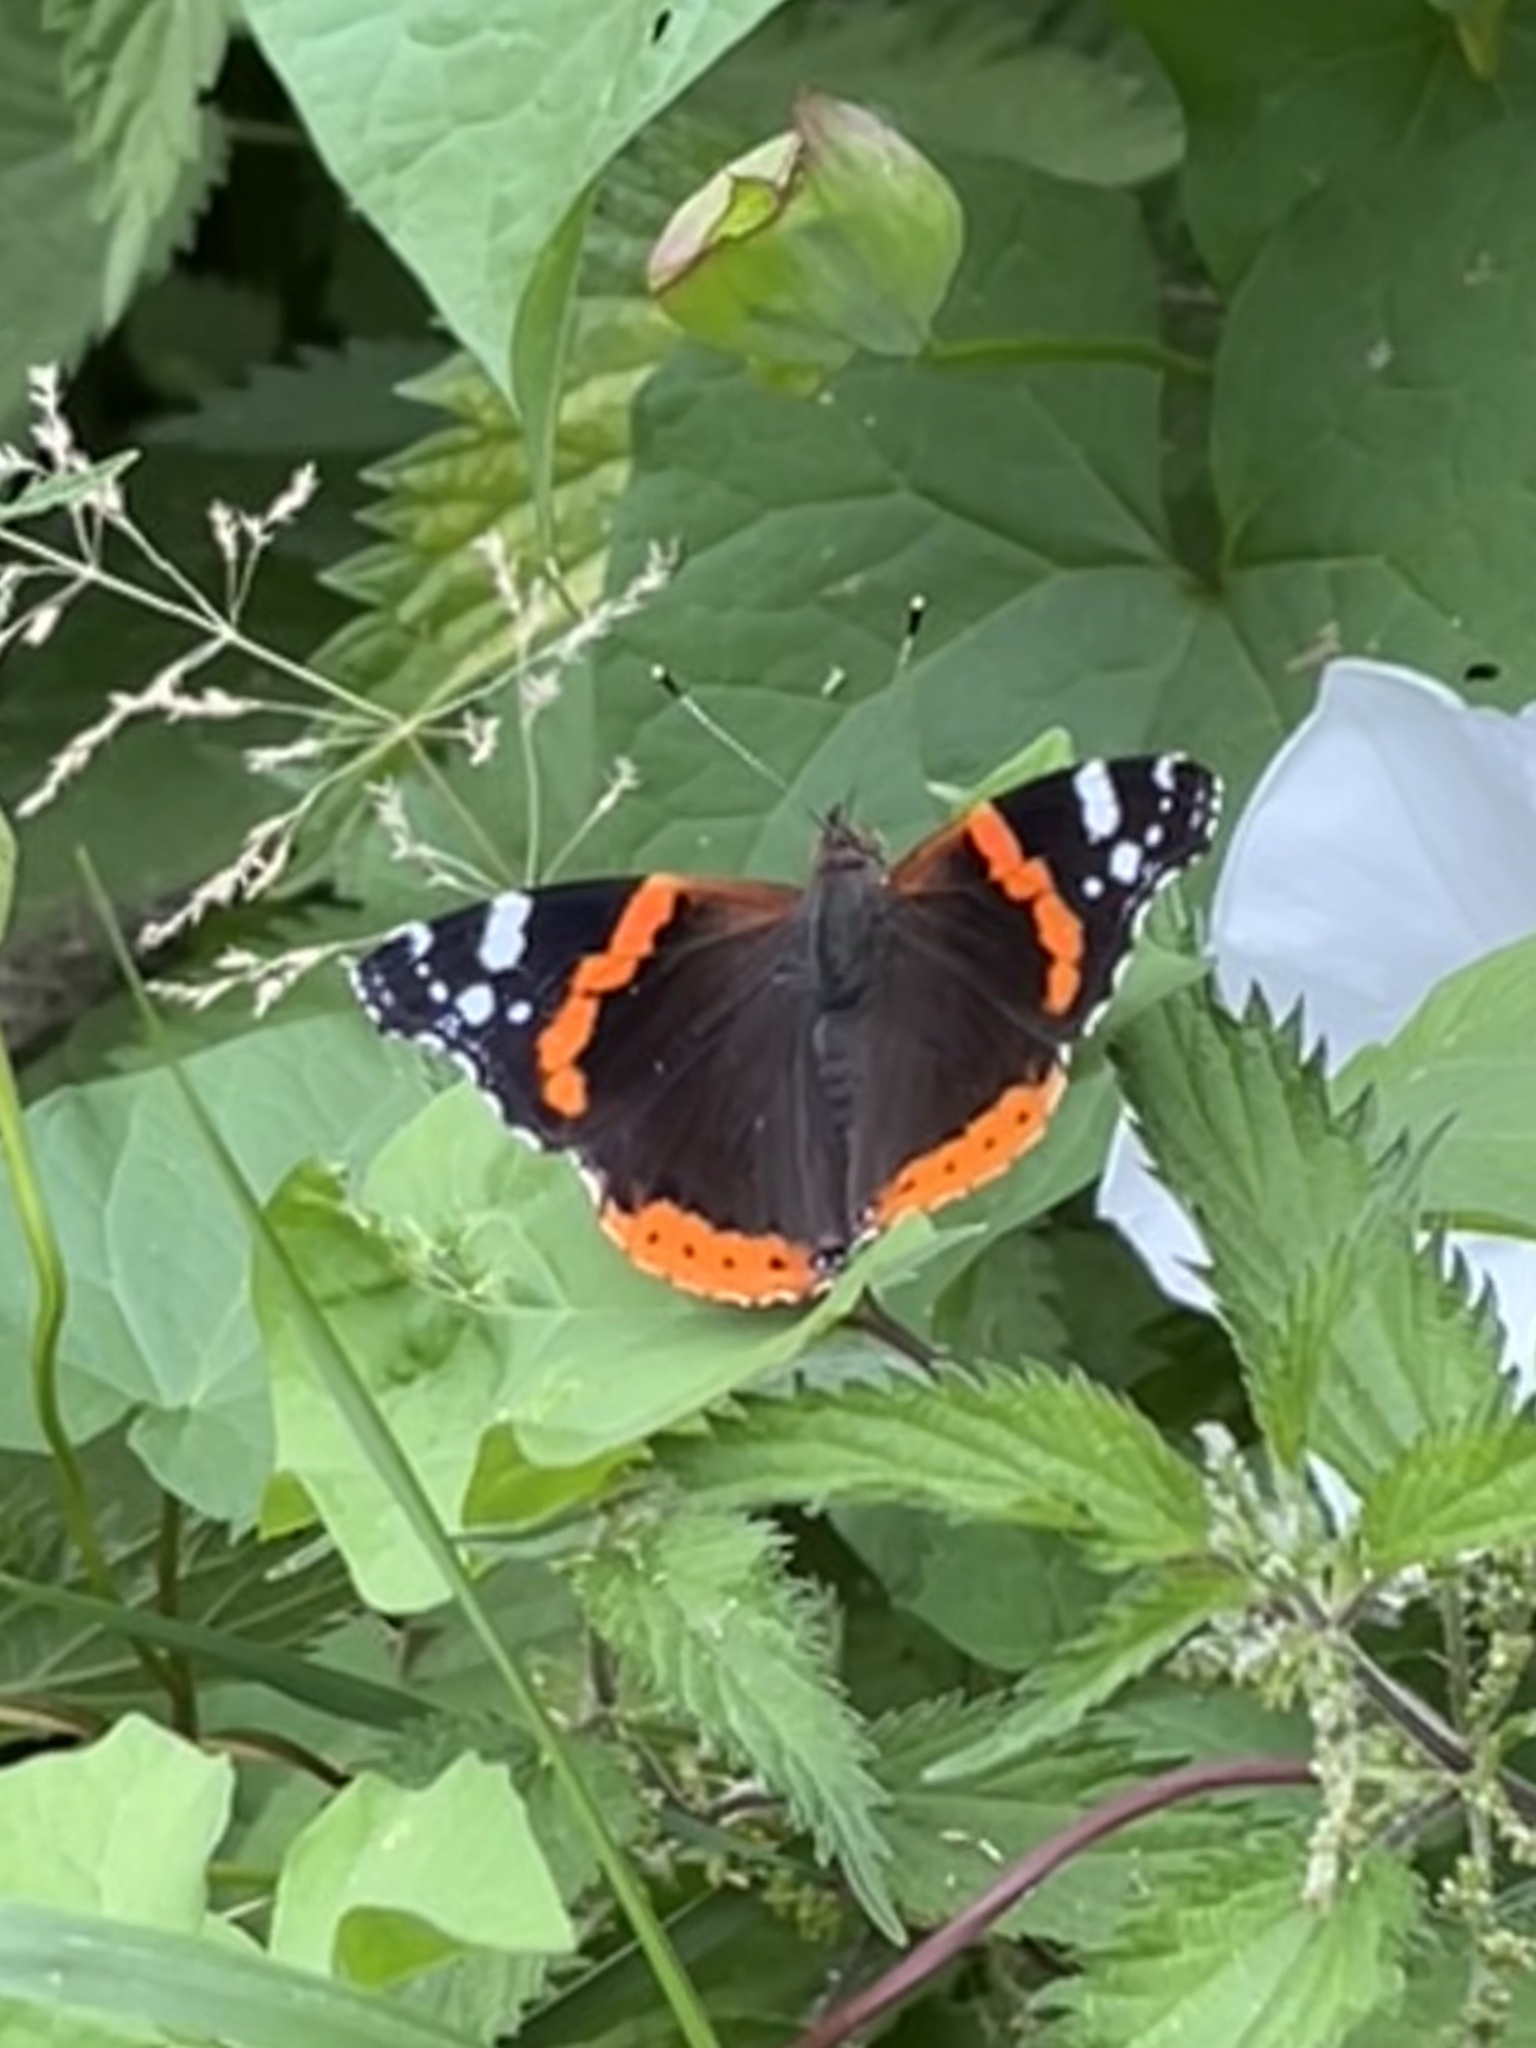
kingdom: Animalia
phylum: Arthropoda
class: Insecta
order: Lepidoptera
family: Nymphalidae
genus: Vanessa
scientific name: Vanessa atalanta
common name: Red admiral
